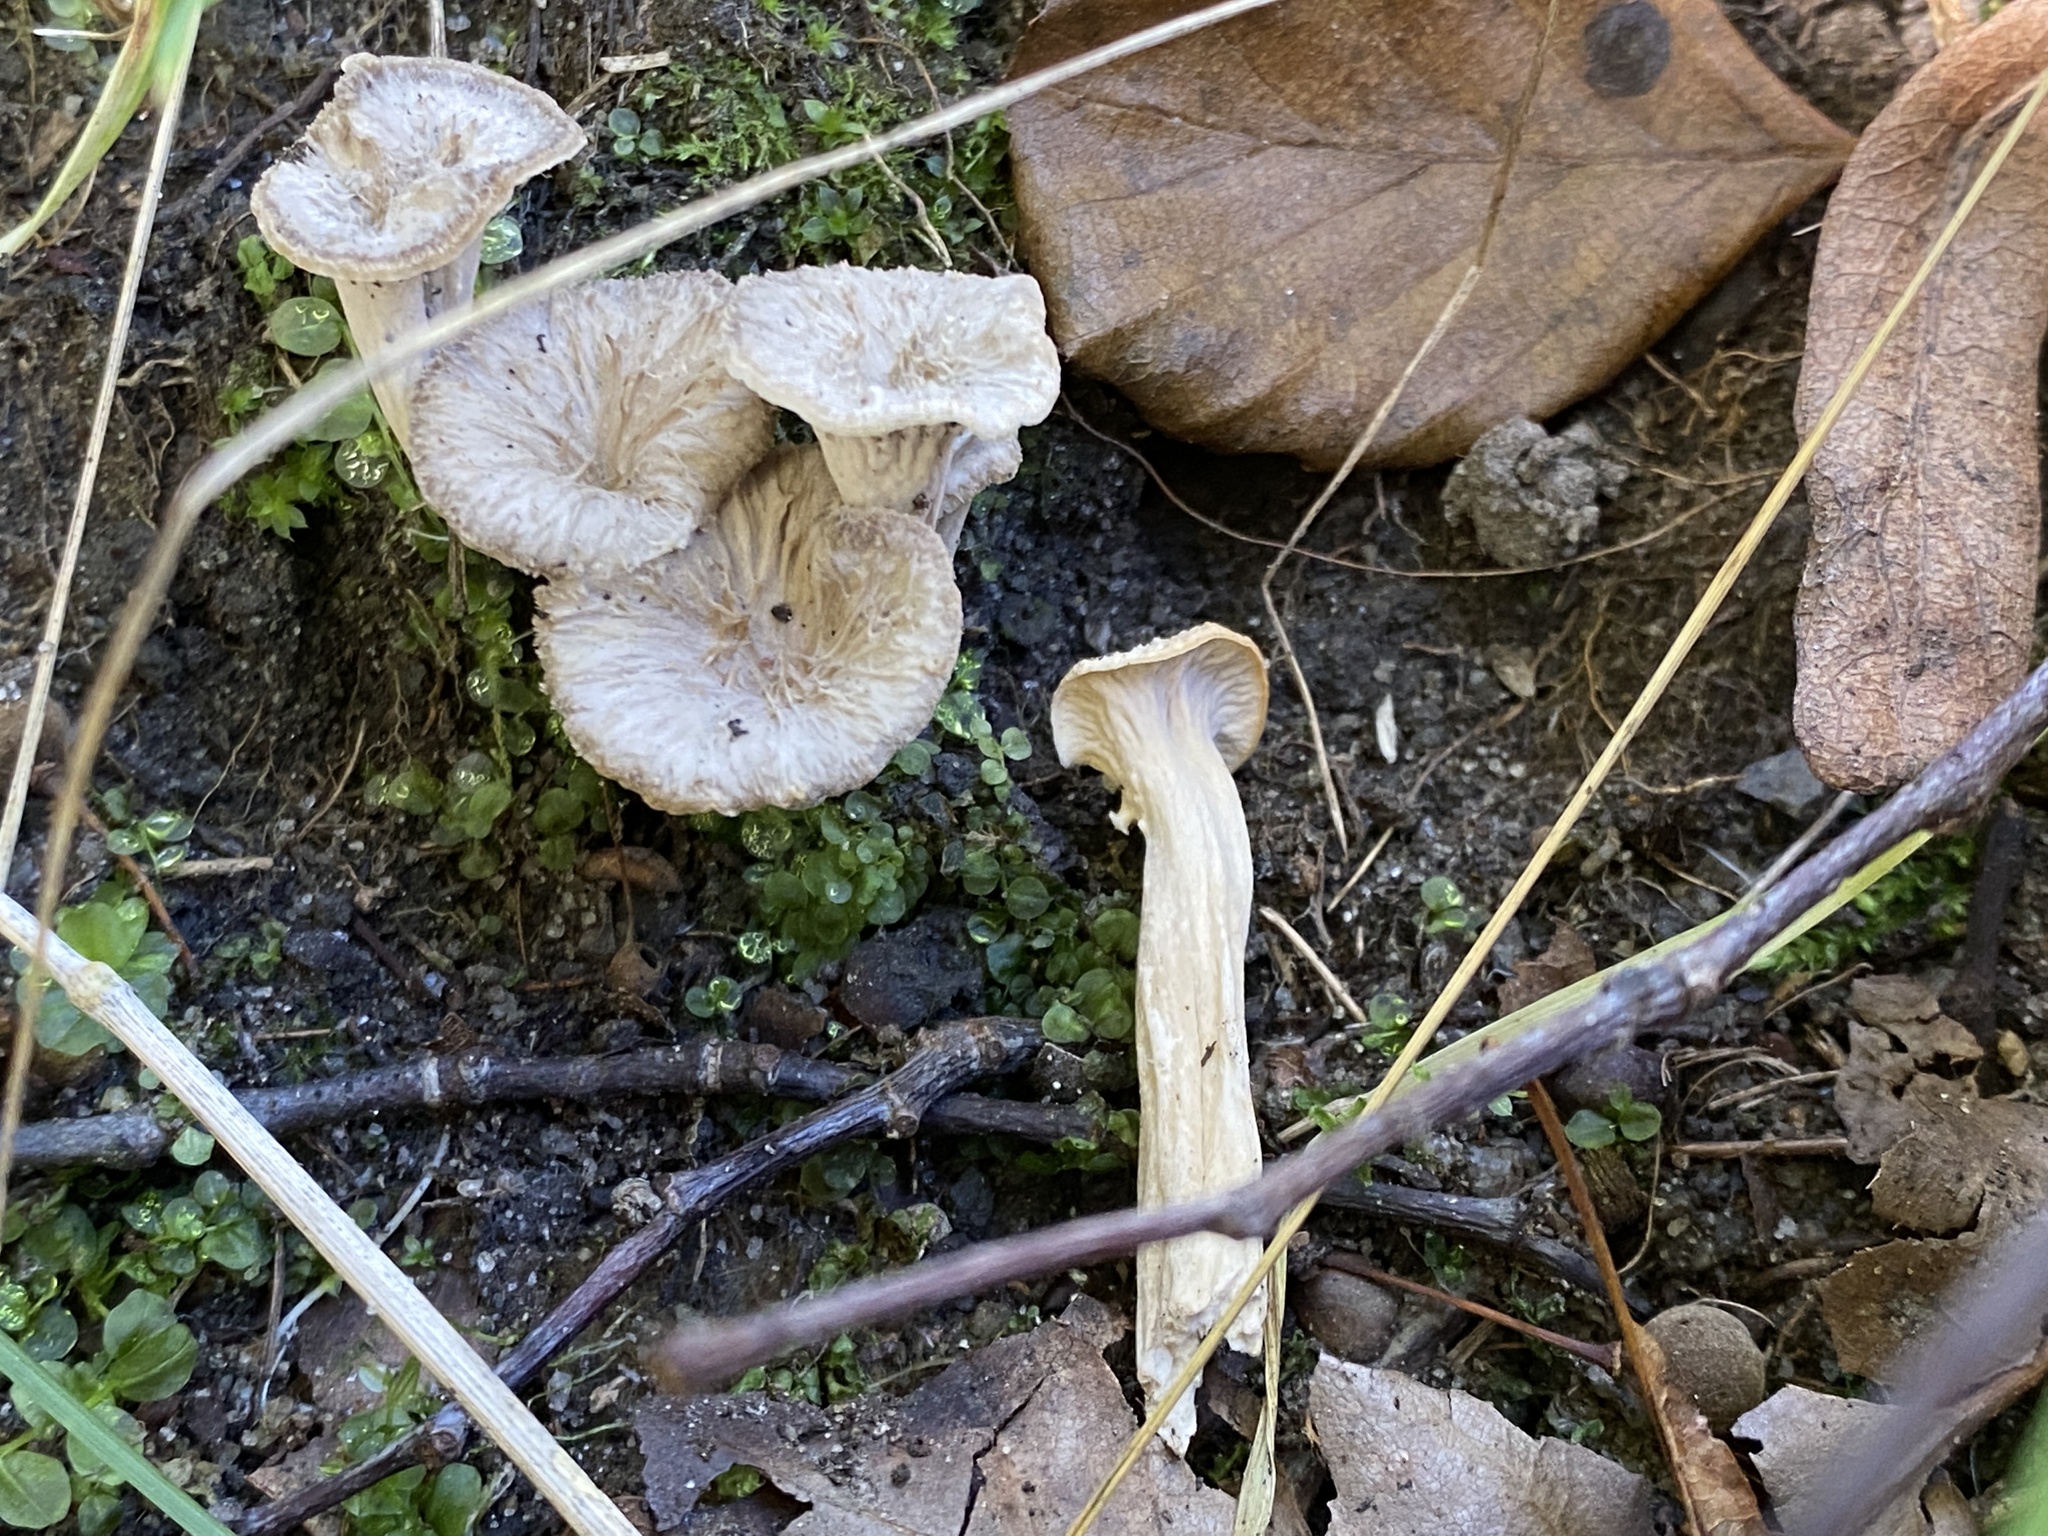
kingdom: Fungi
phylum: Basidiomycota
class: Agaricomycetes
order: Cantharellales
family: Hydnaceae
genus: Craterellus
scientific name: Craterellus undulatus
